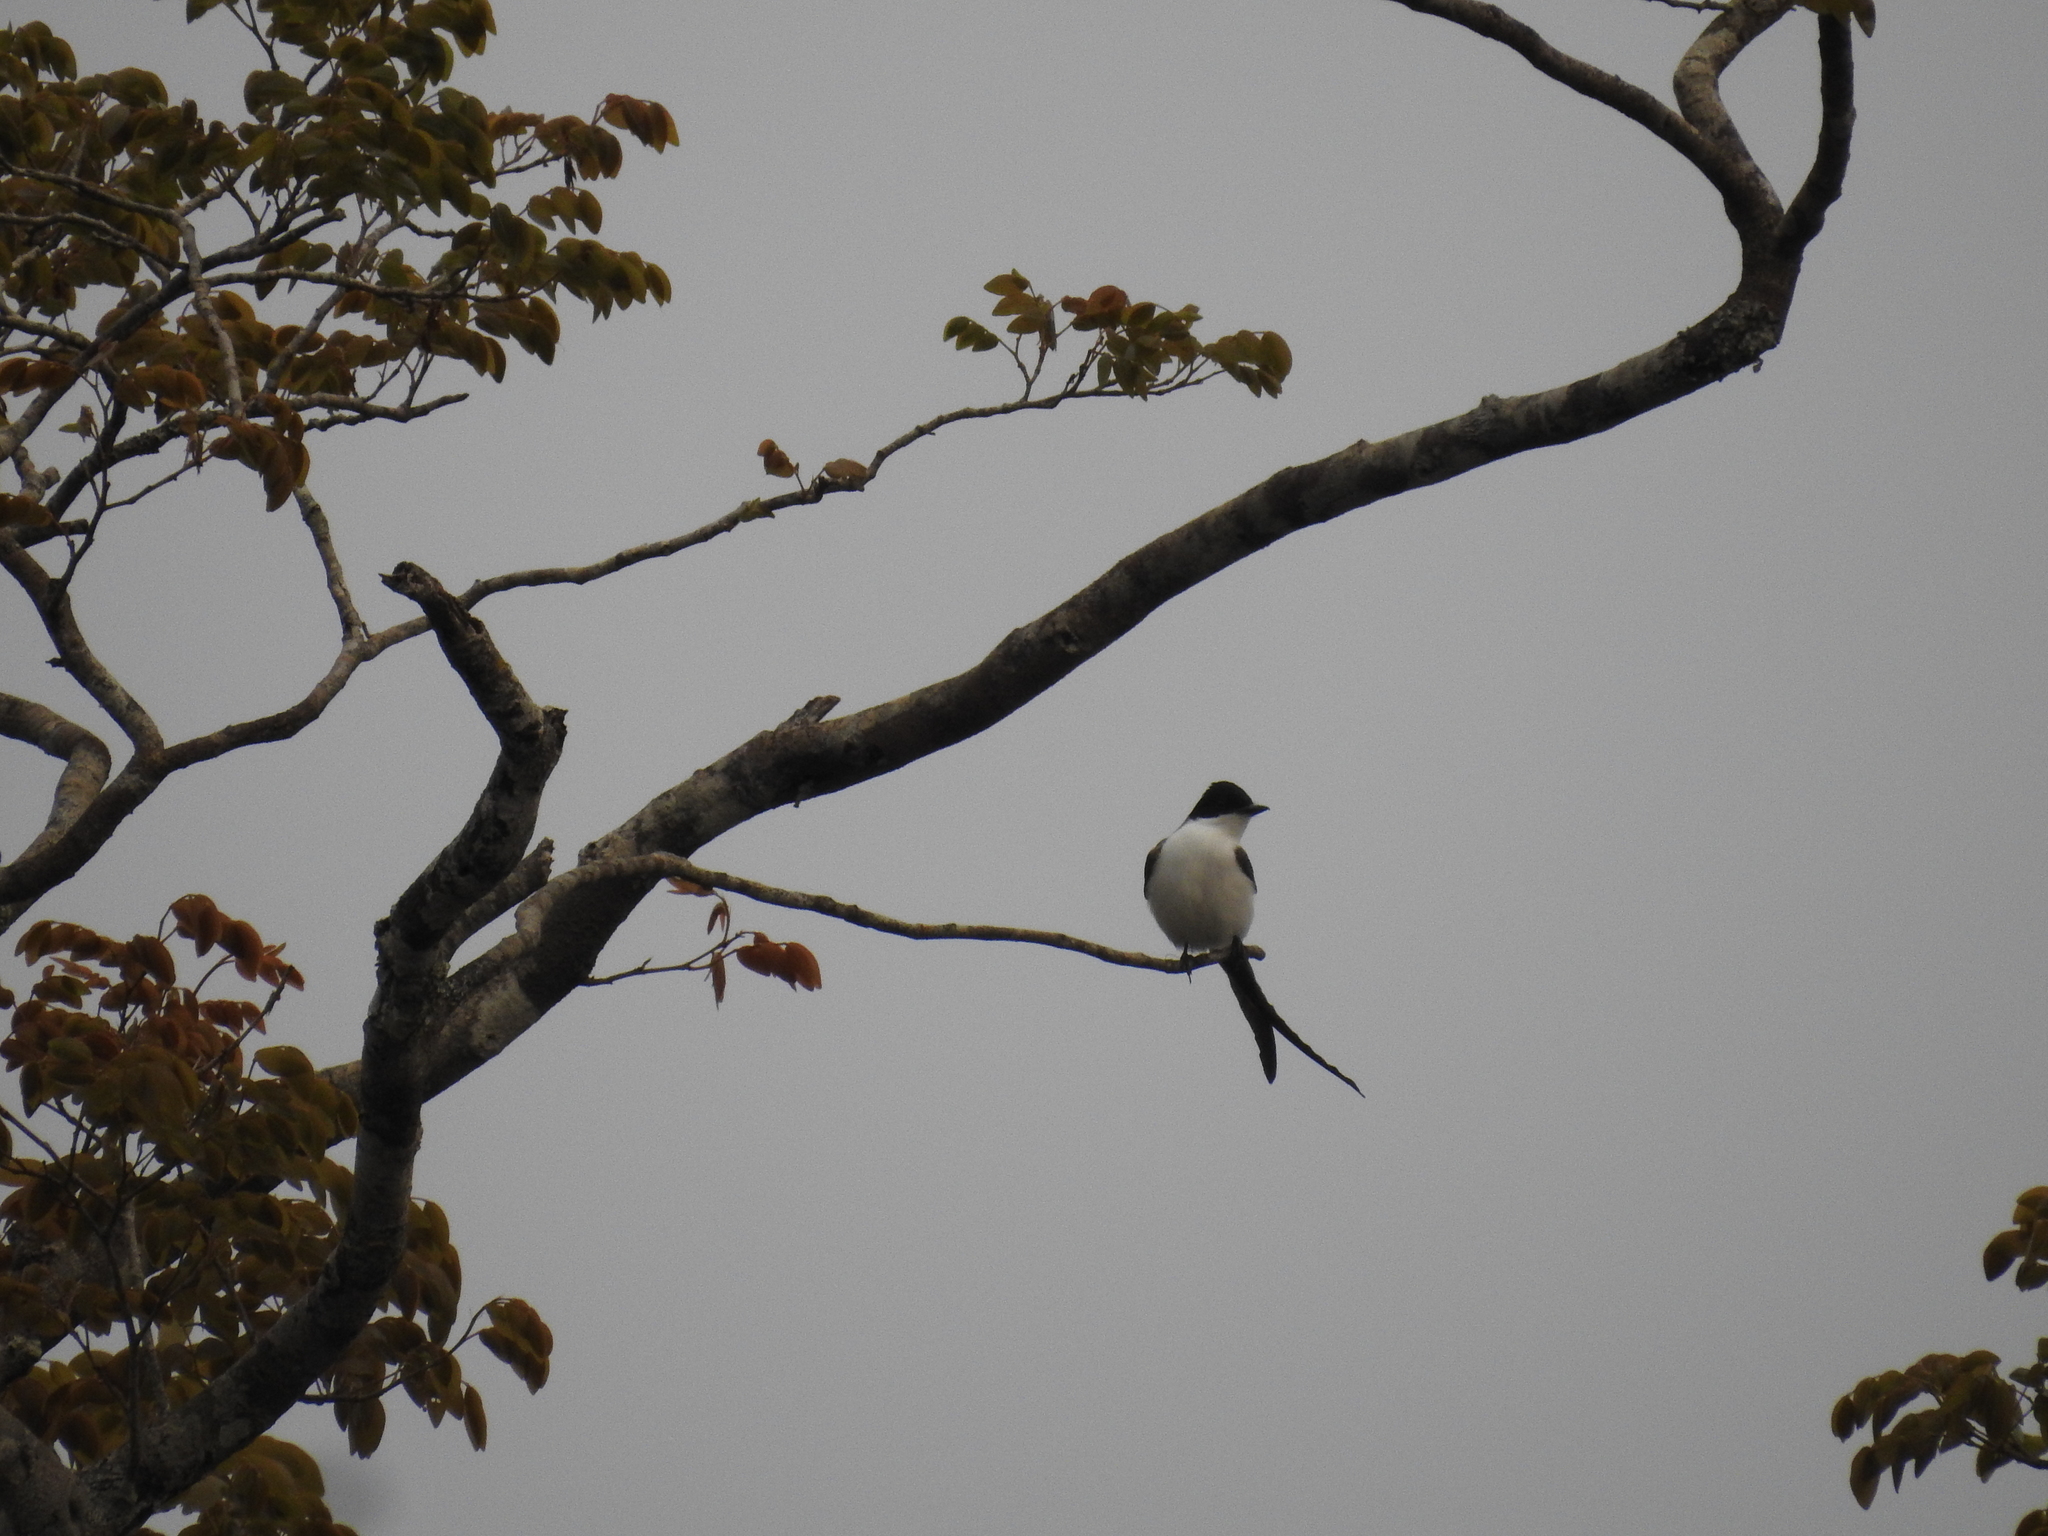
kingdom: Animalia
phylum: Chordata
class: Aves
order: Passeriformes
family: Tyrannidae
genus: Tyrannus
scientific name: Tyrannus savana
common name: Fork-tailed flycatcher
